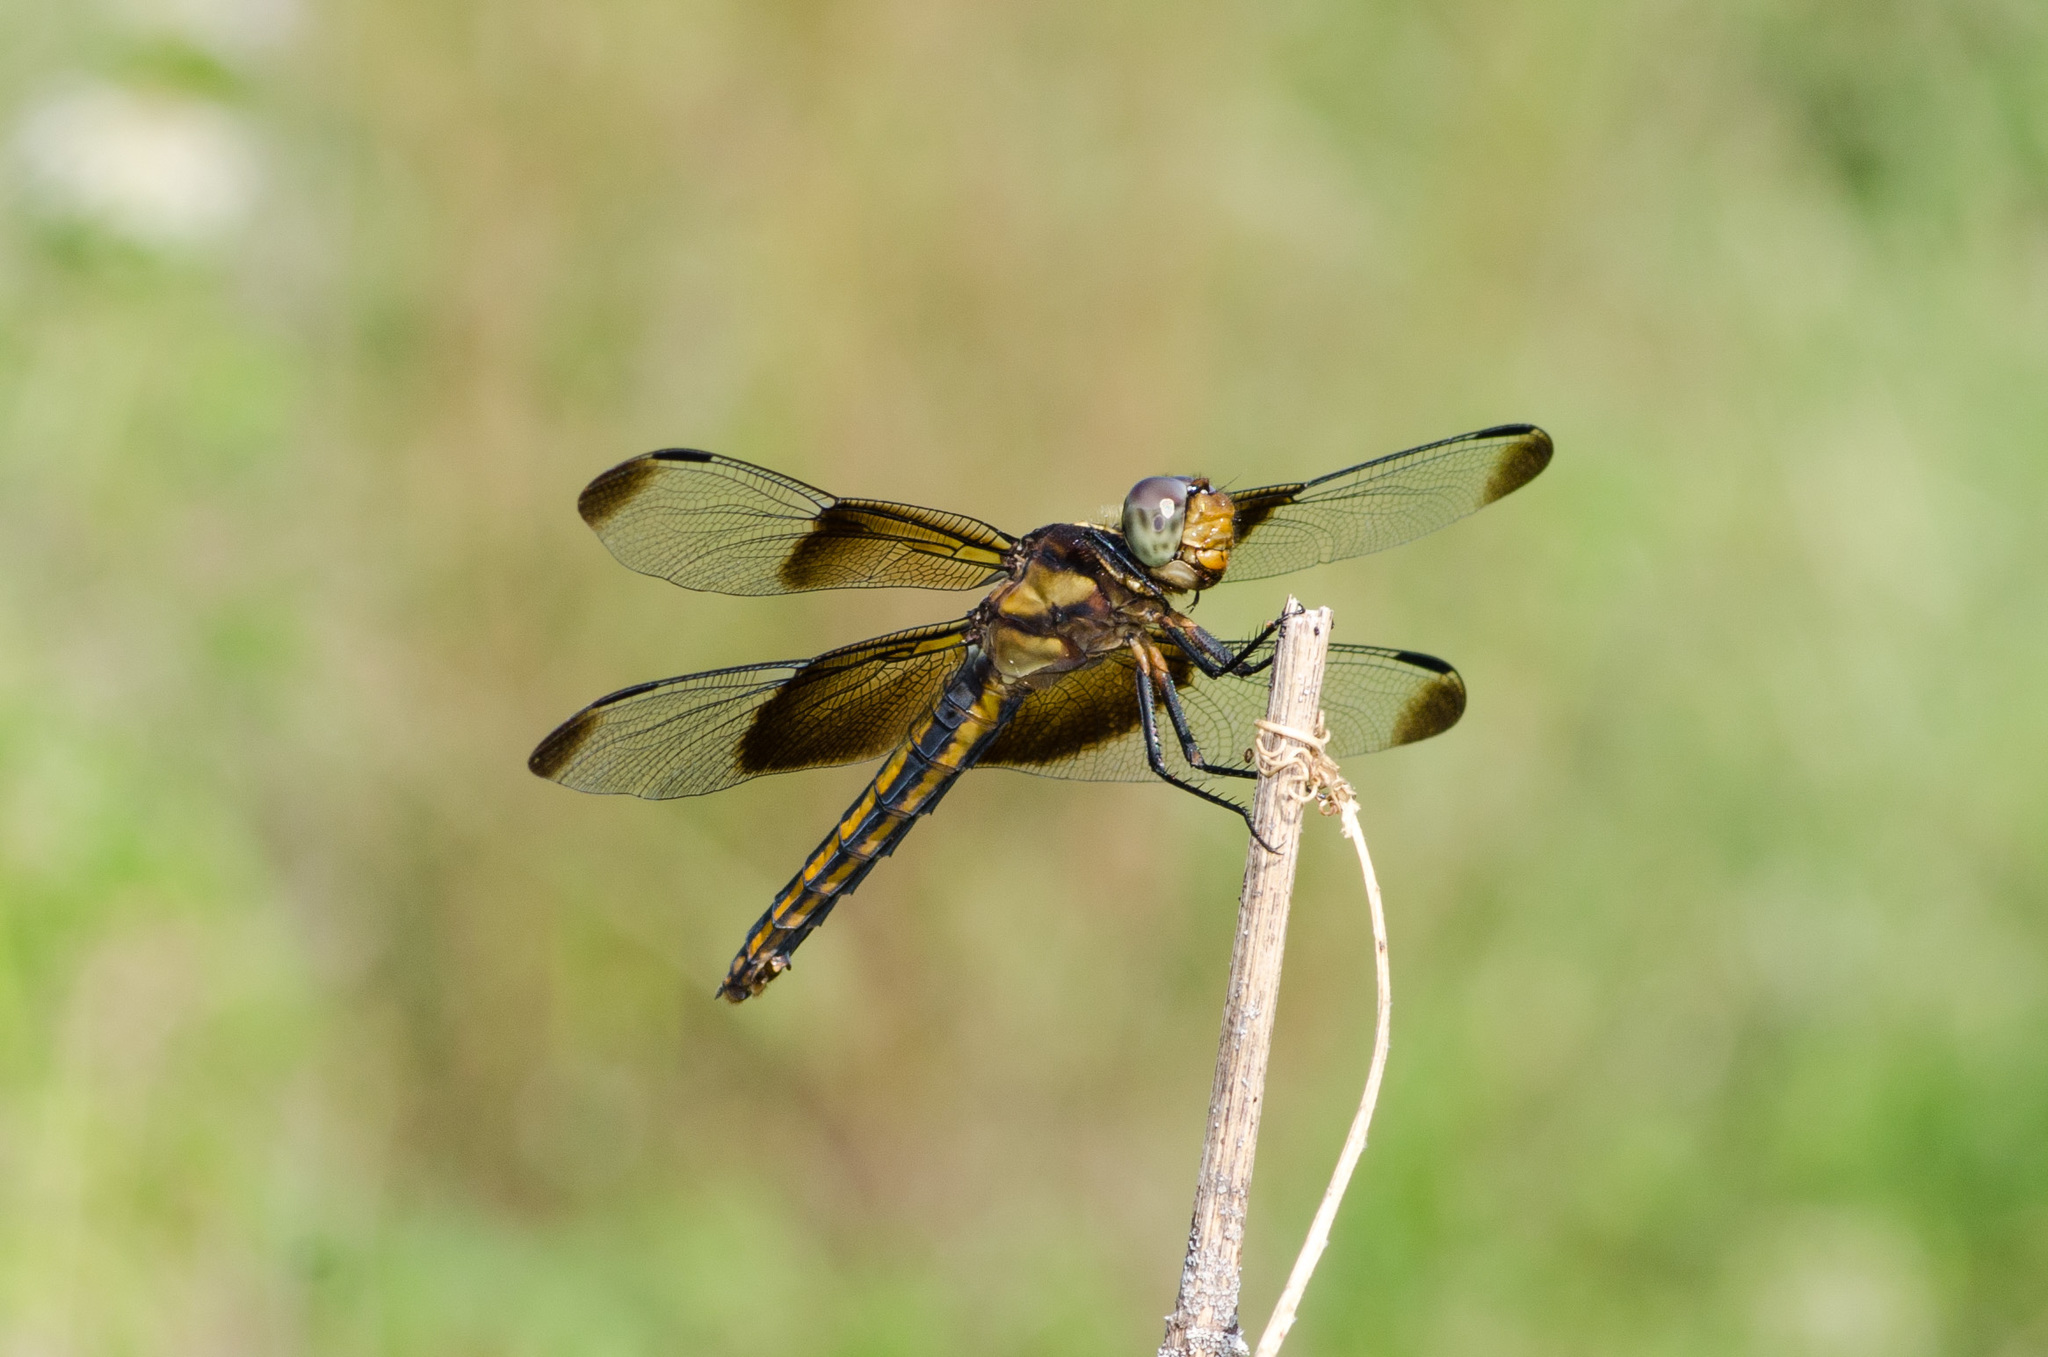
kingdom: Animalia
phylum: Arthropoda
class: Insecta
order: Odonata
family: Libellulidae
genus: Libellula
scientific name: Libellula luctuosa
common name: Widow skimmer
